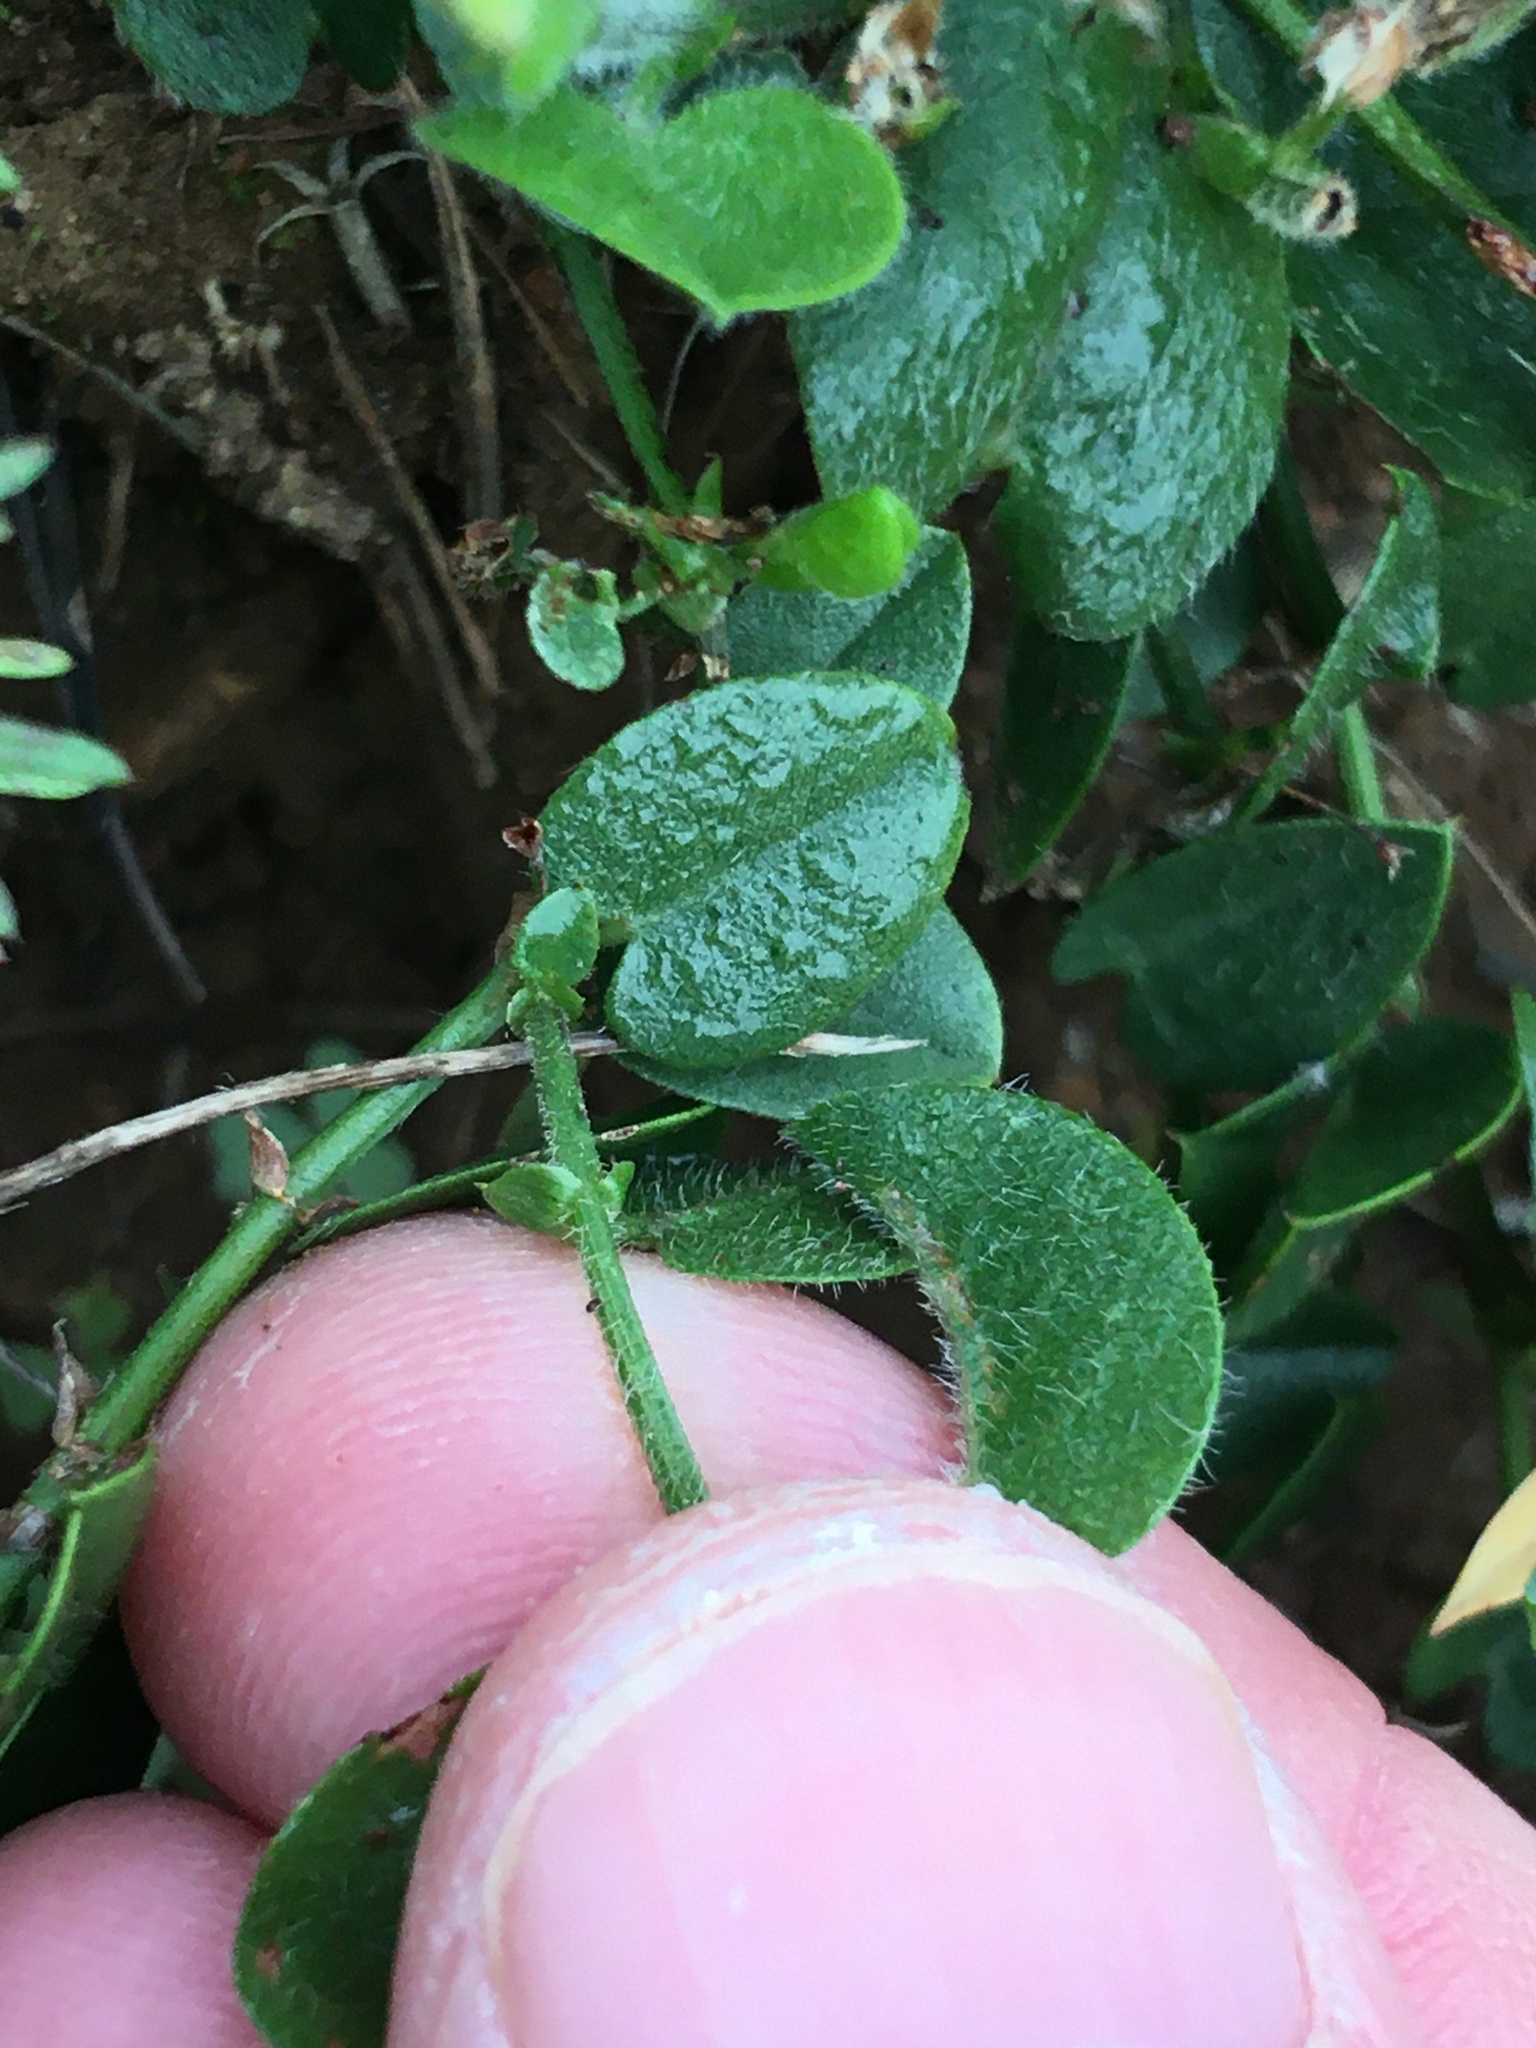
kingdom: Plantae
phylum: Tracheophyta
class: Magnoliopsida
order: Solanales
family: Convolvulaceae
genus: Falkia
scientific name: Falkia repens
